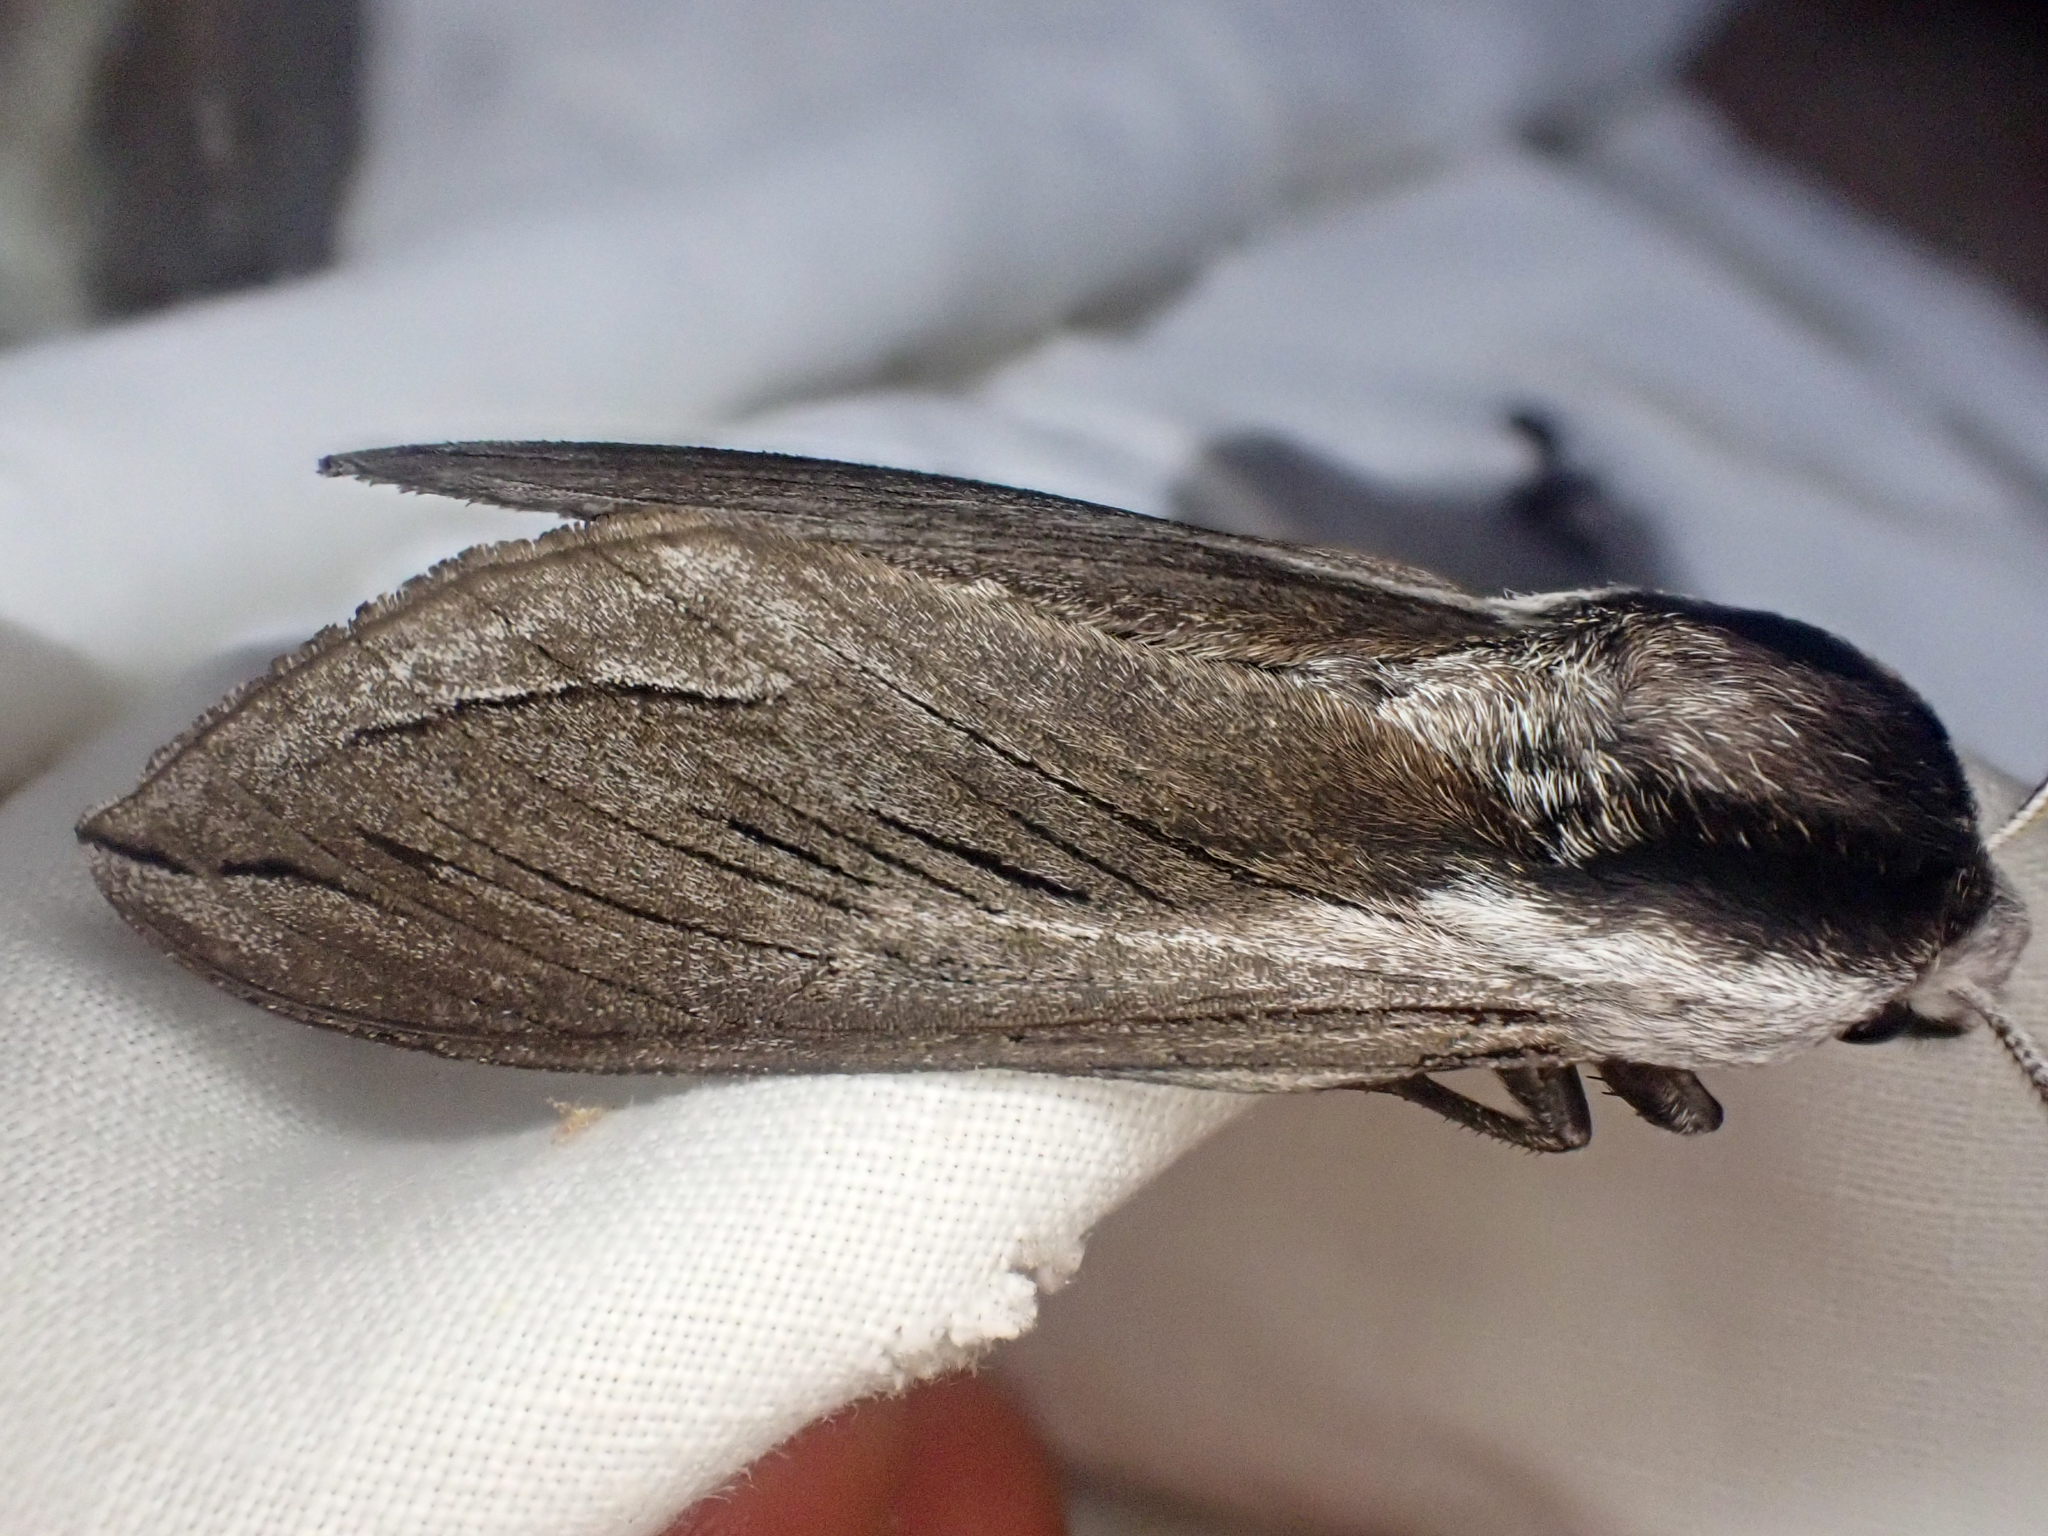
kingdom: Animalia
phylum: Arthropoda
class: Insecta
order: Lepidoptera
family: Sphingidae
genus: Sphinx
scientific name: Sphinx vashti
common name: Snowberry sphinx
